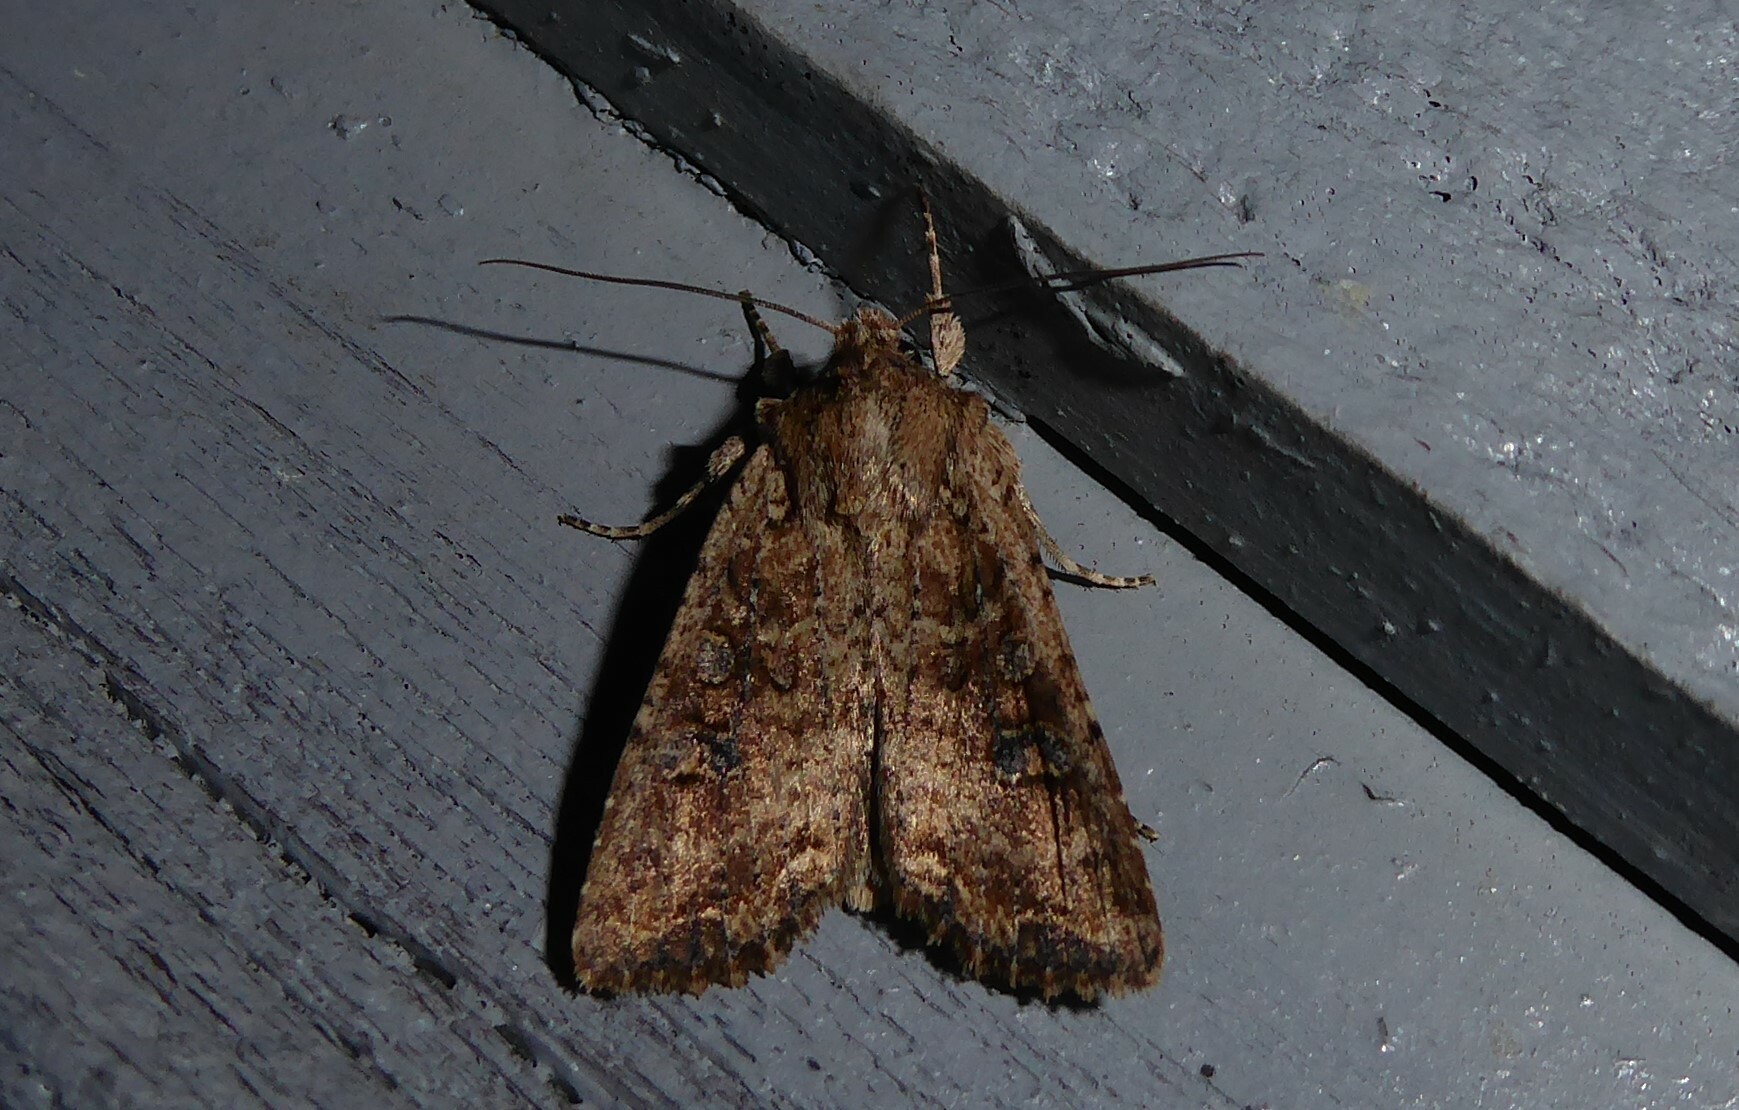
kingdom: Animalia
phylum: Arthropoda
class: Insecta
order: Lepidoptera
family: Noctuidae
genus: Ichneutica
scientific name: Ichneutica morosa
